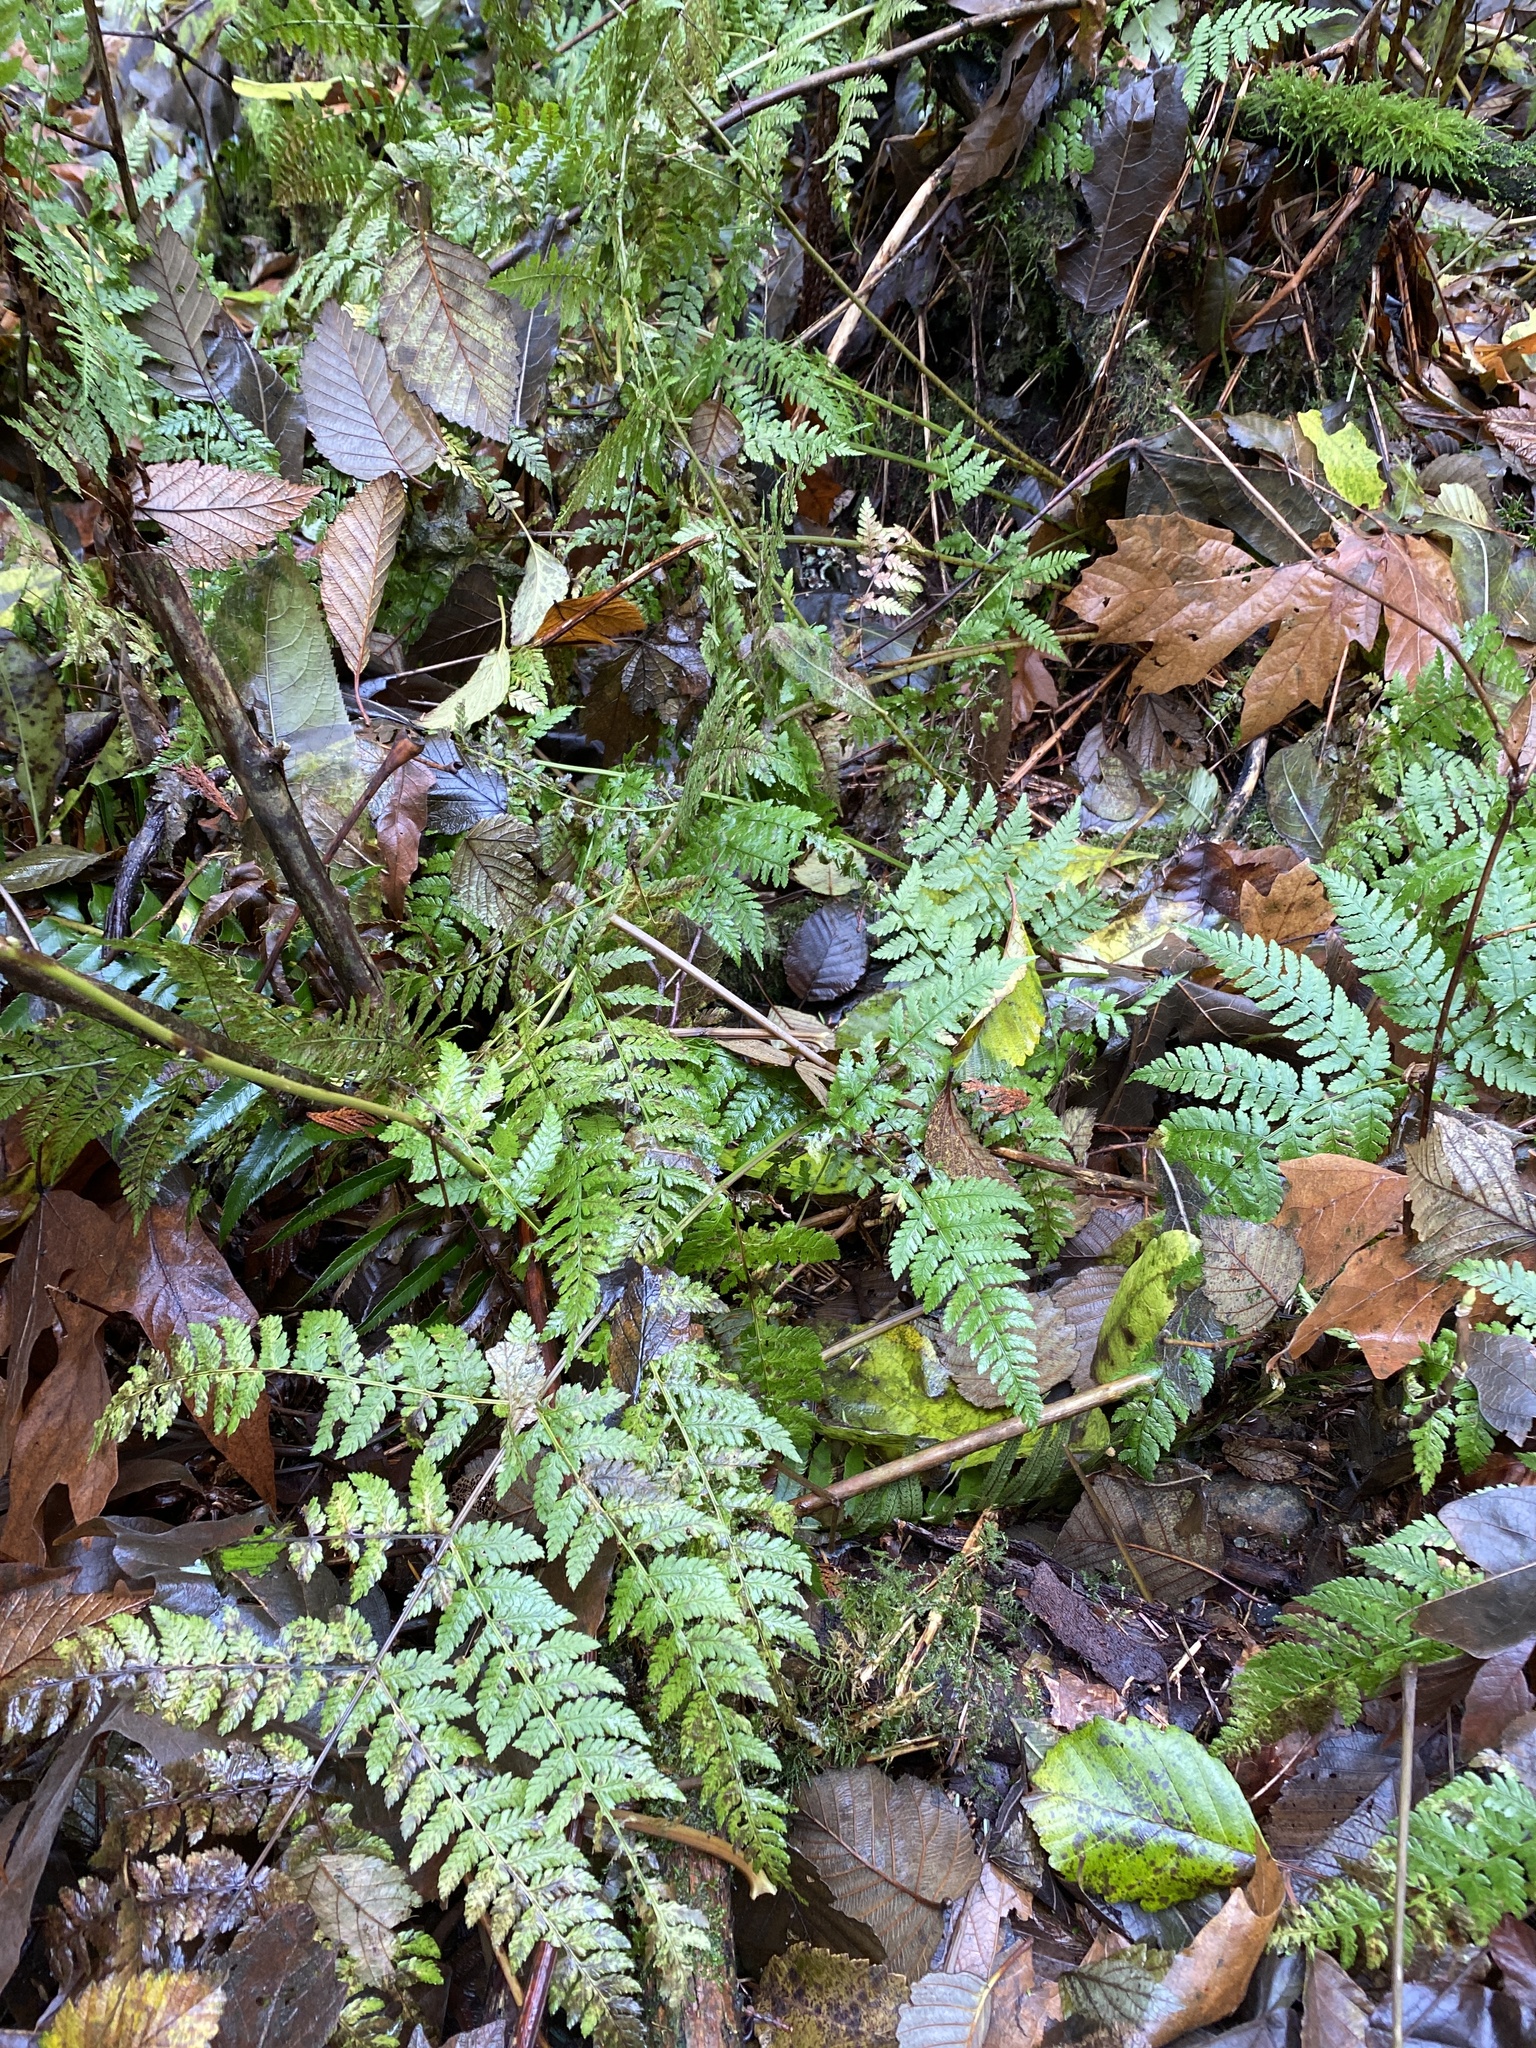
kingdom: Plantae
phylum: Tracheophyta
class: Polypodiopsida
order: Polypodiales
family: Dryopteridaceae
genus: Dryopteris
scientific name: Dryopteris expansa
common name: Northern buckler fern
